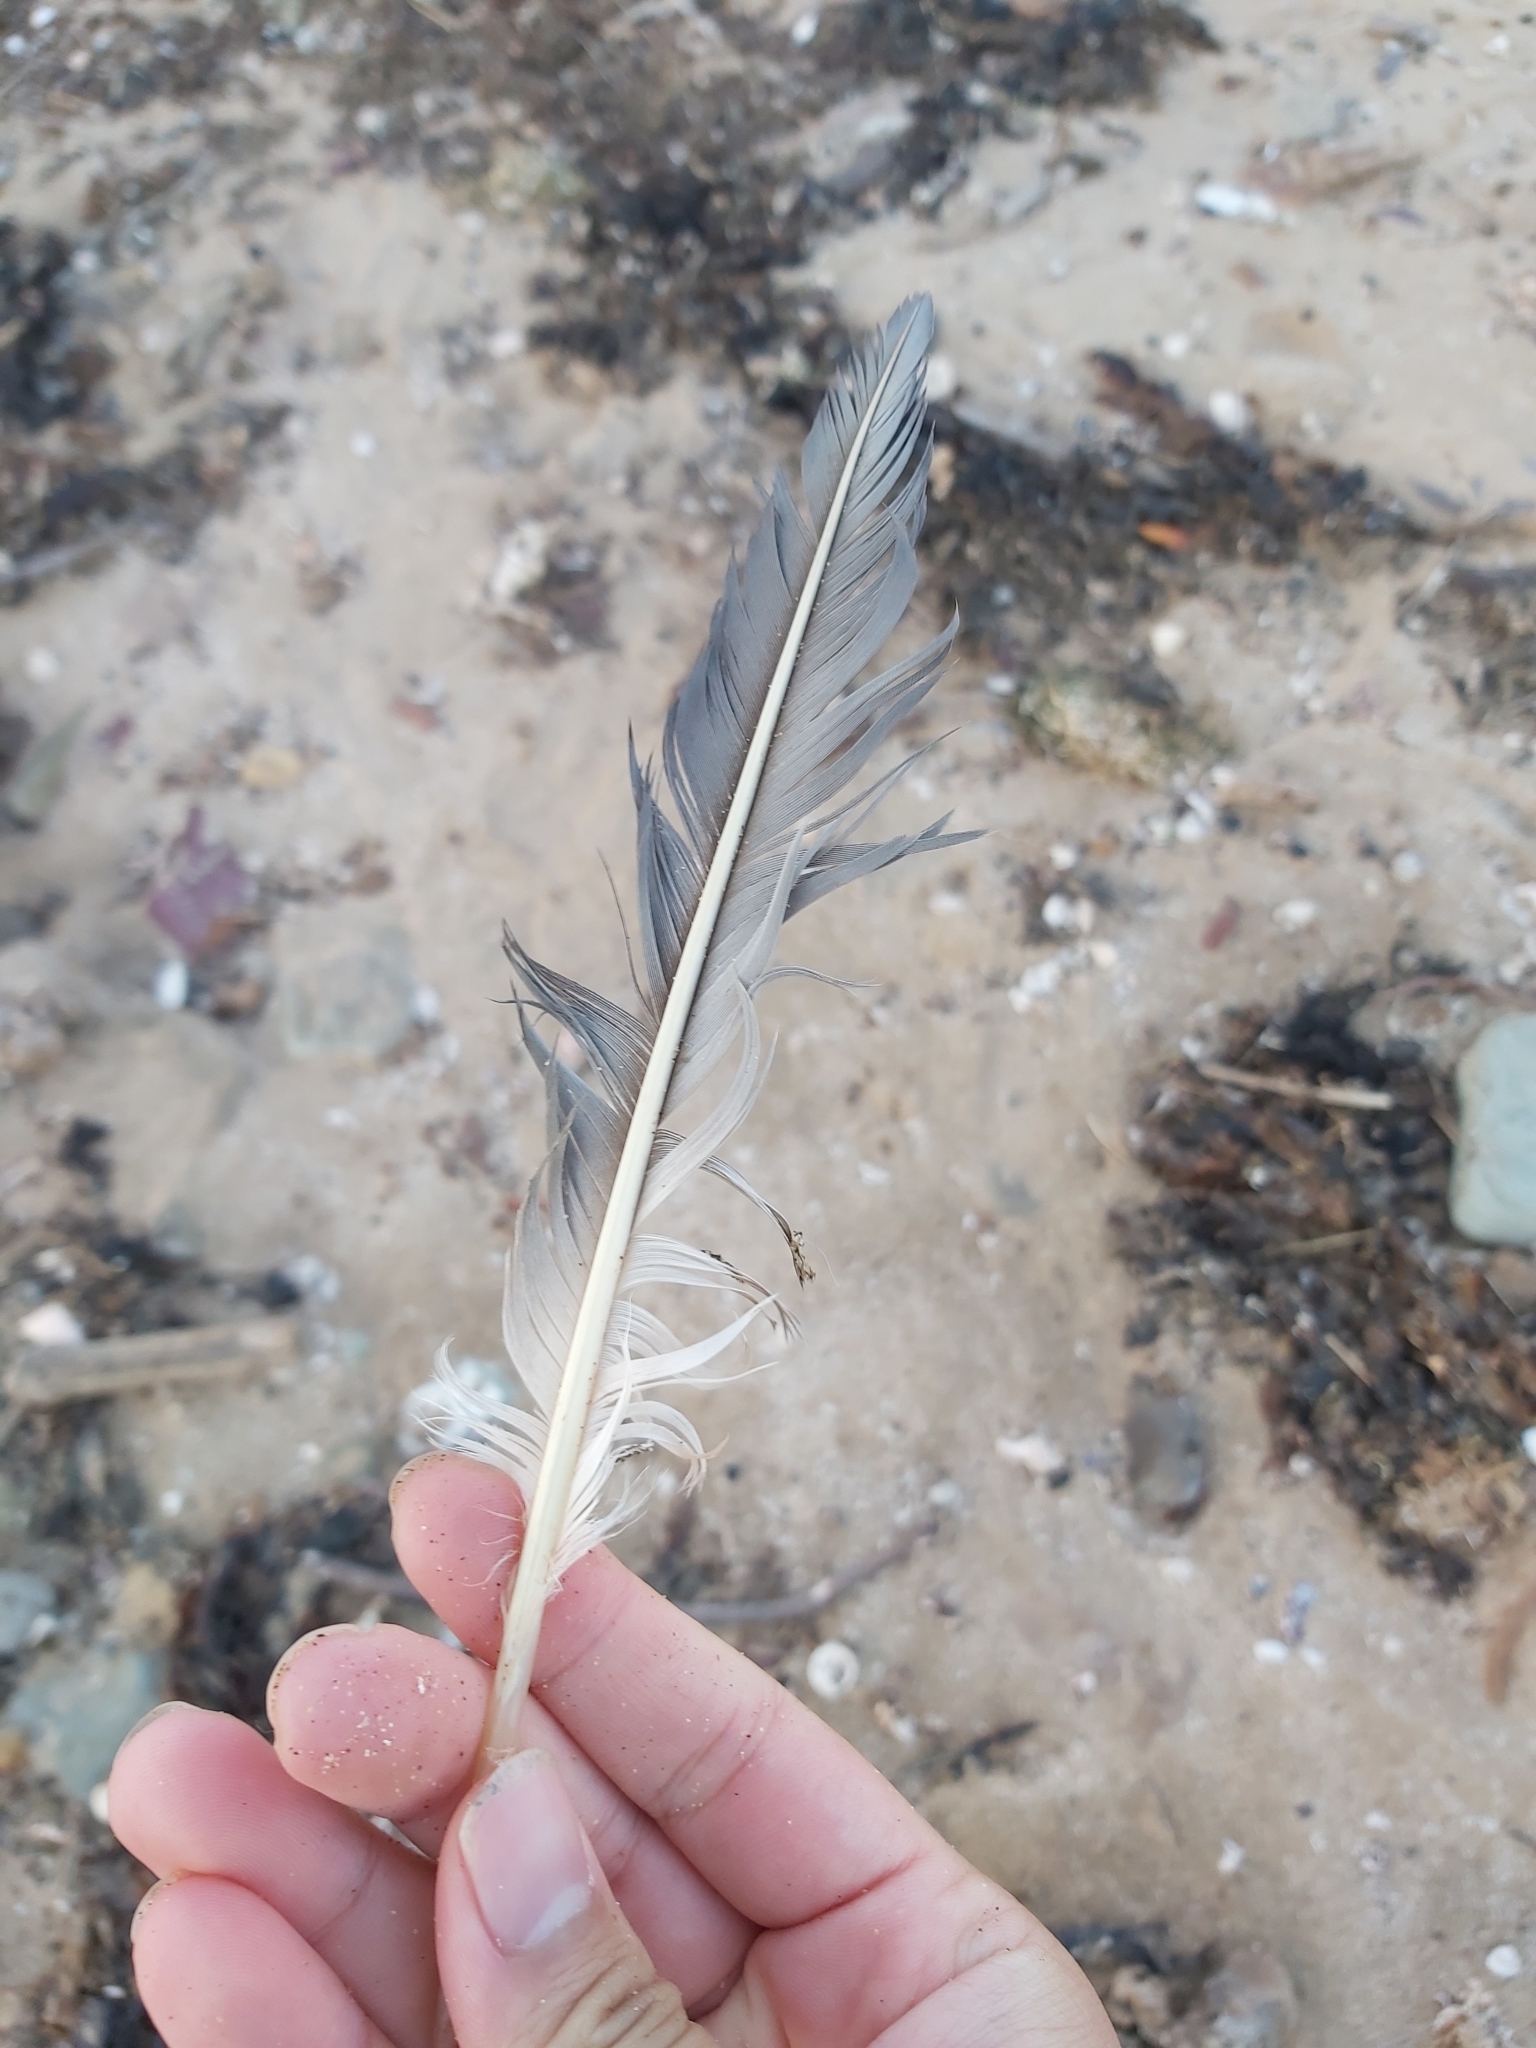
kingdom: Animalia
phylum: Chordata
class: Aves
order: Suliformes
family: Sulidae
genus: Morus
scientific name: Morus serrator
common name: Australasian gannet
